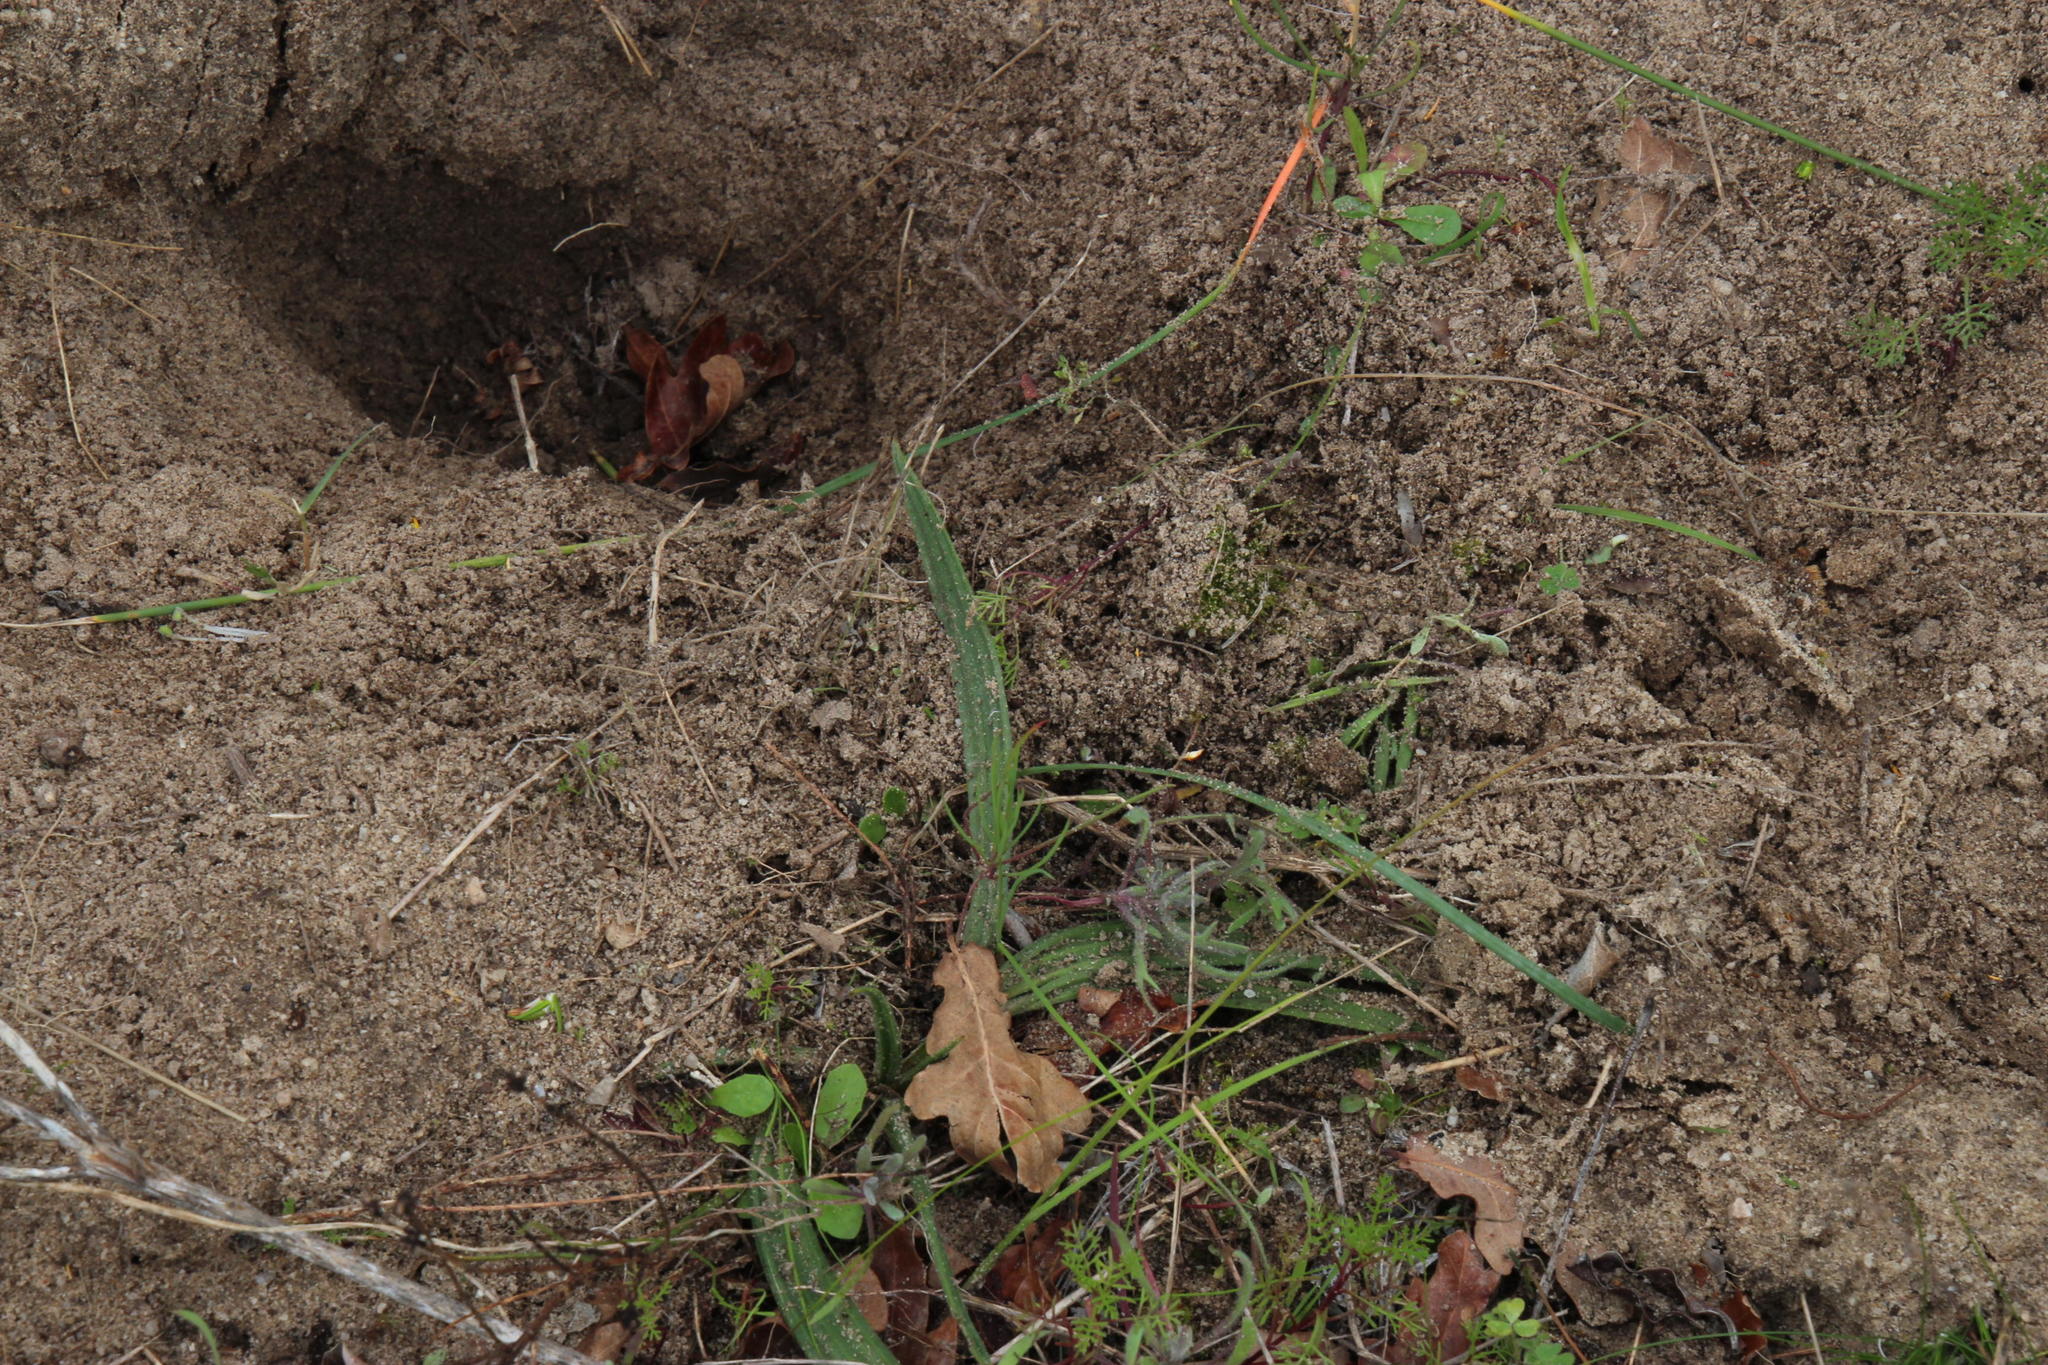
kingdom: Plantae
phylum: Tracheophyta
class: Liliopsida
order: Commelinales
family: Haemodoraceae
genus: Wachendorfia
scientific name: Wachendorfia paniculata
